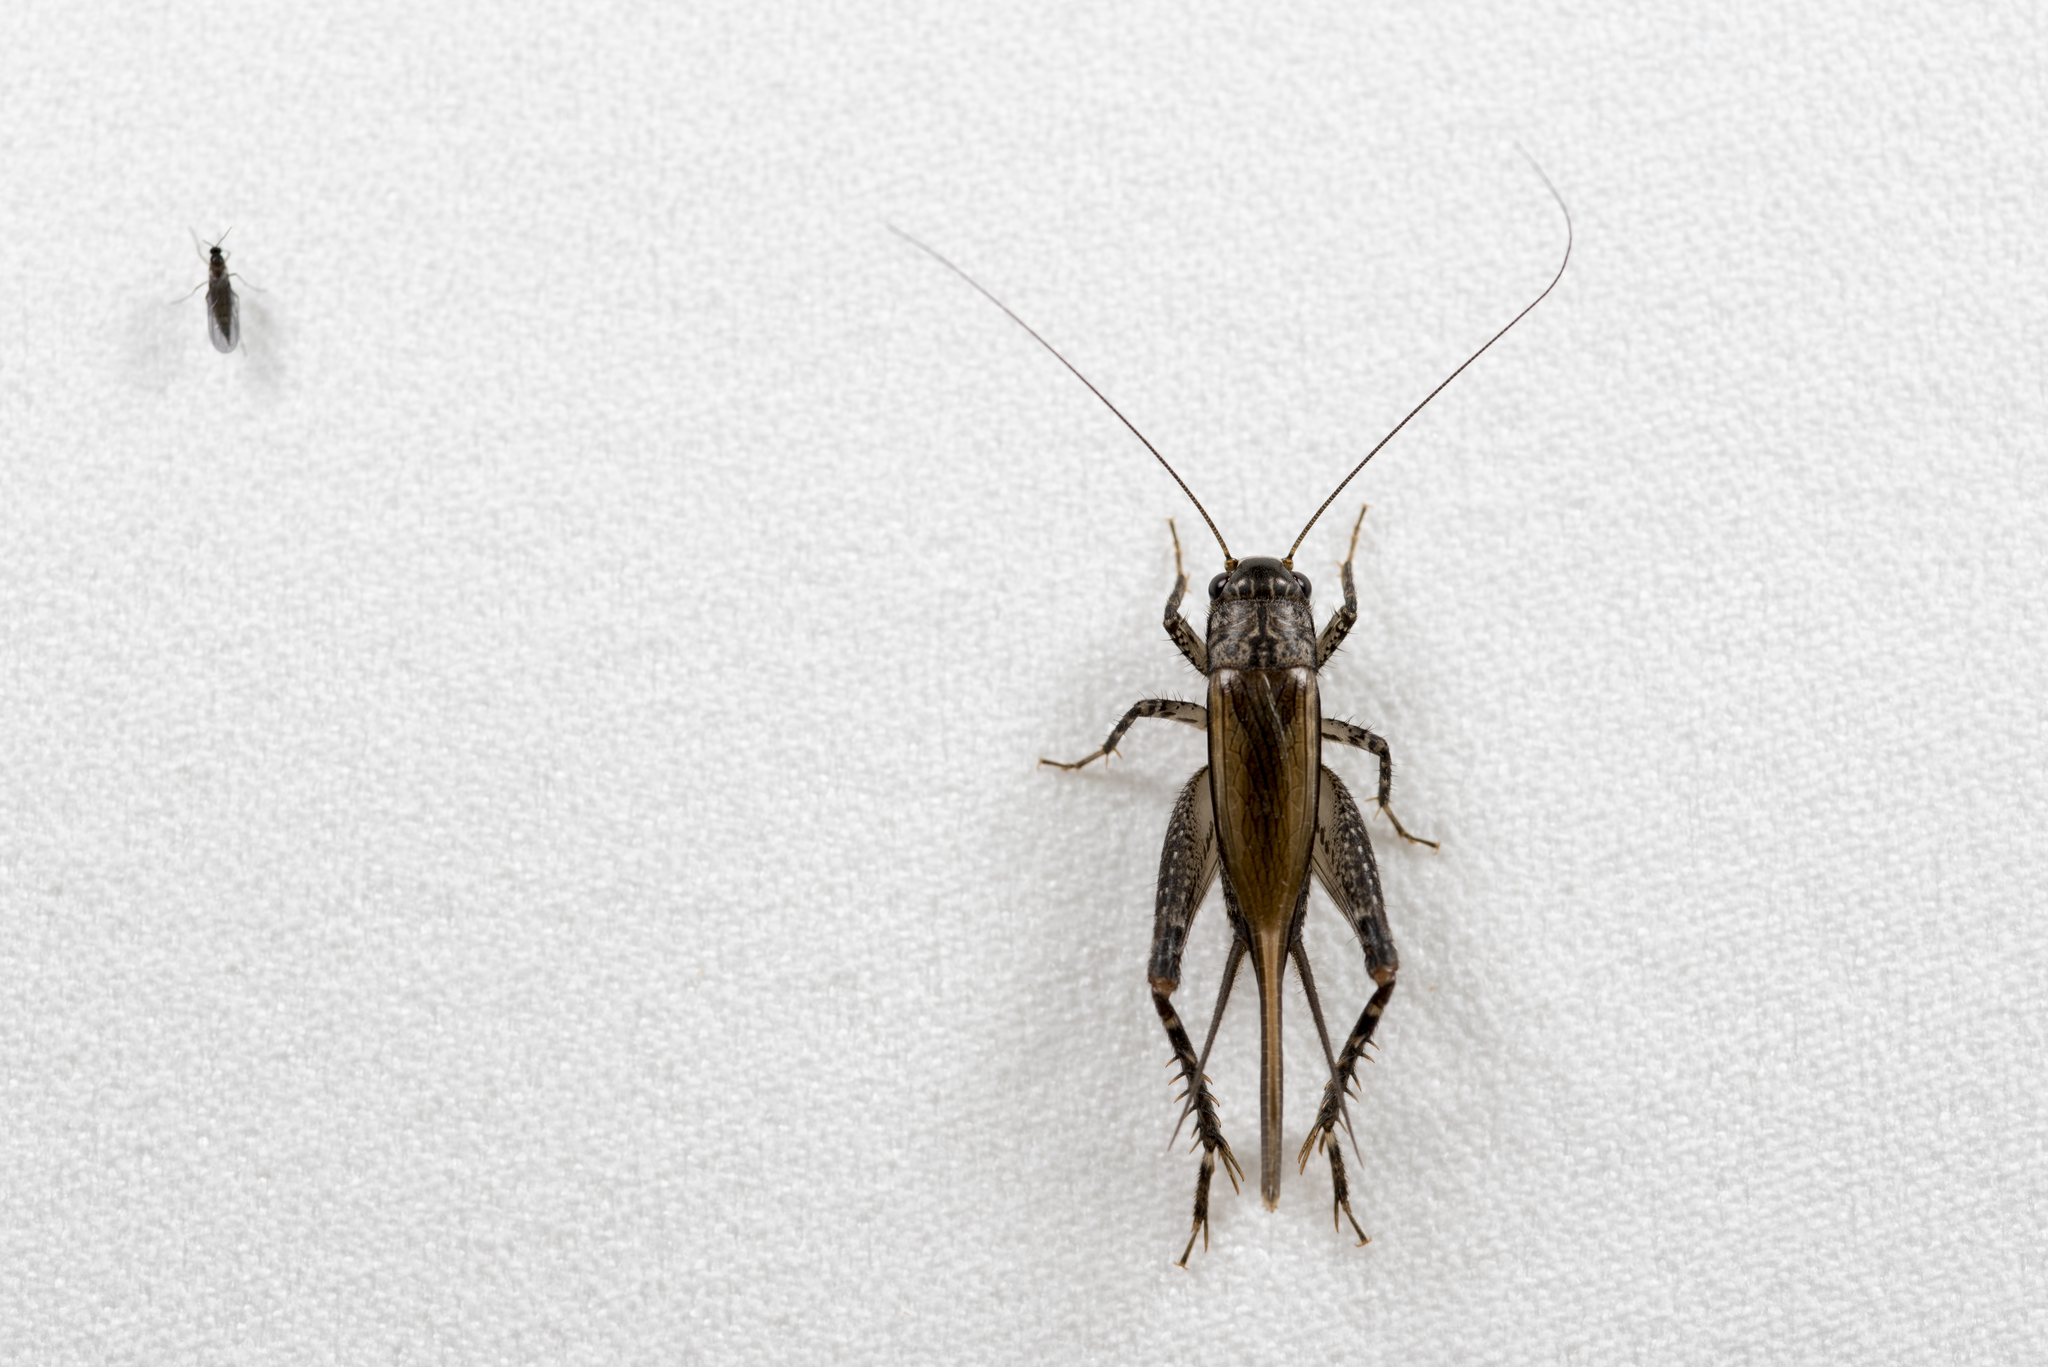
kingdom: Animalia
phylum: Arthropoda
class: Insecta
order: Orthoptera
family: Gryllidae
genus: Loxoblemmus
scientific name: Loxoblemmus equestris
